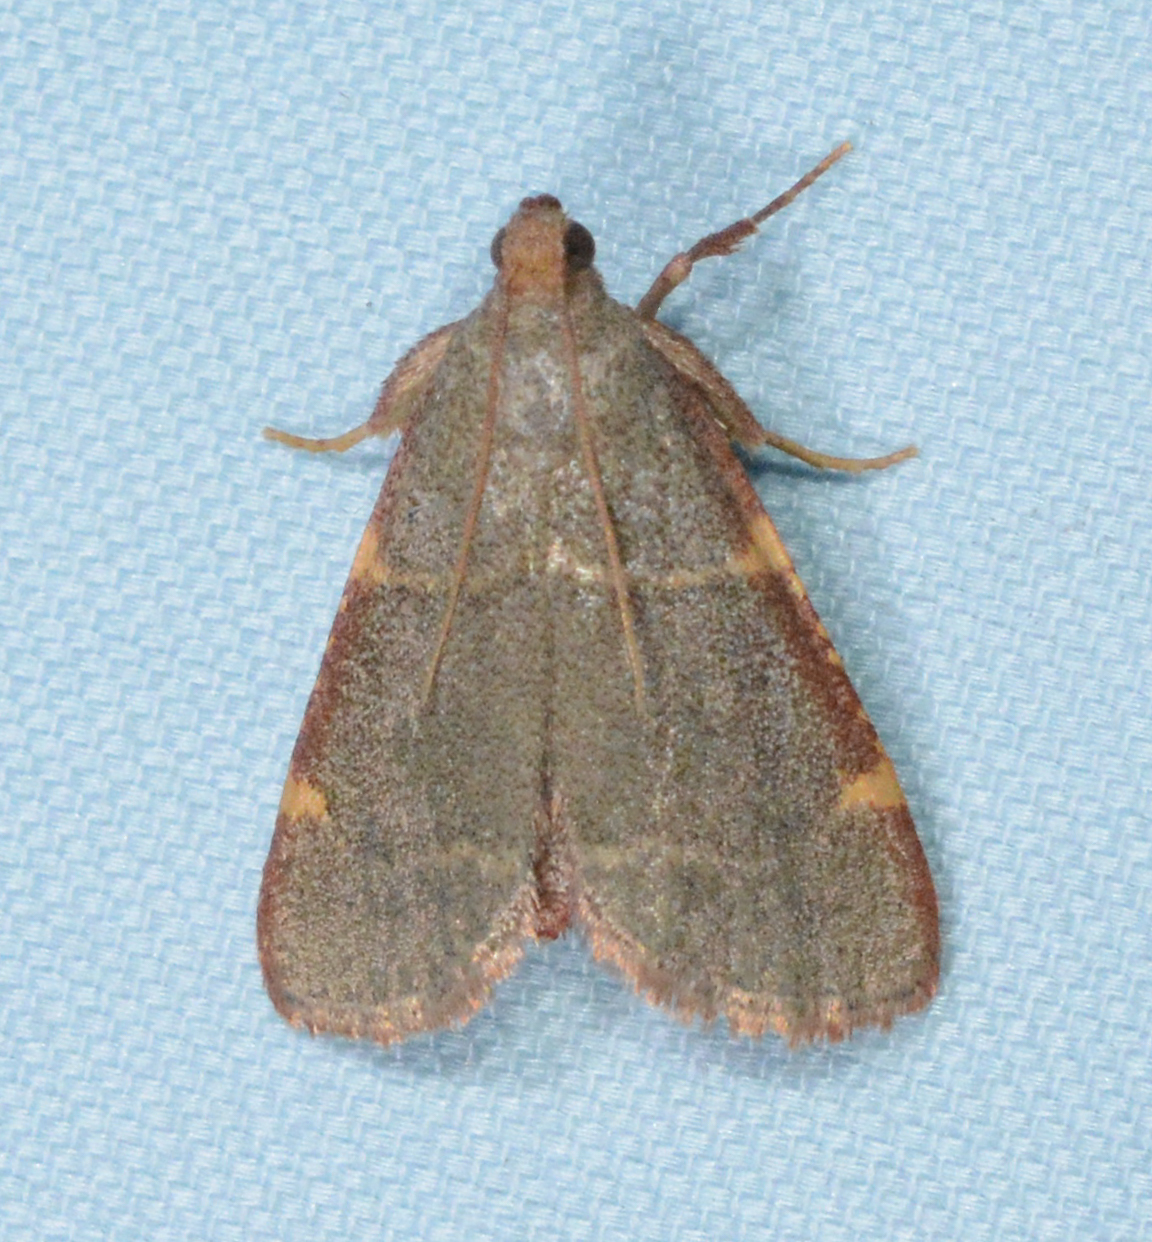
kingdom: Animalia
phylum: Arthropoda
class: Insecta
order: Lepidoptera
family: Pyralidae
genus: Hypsopygia
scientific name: Hypsopygia binodulalis
